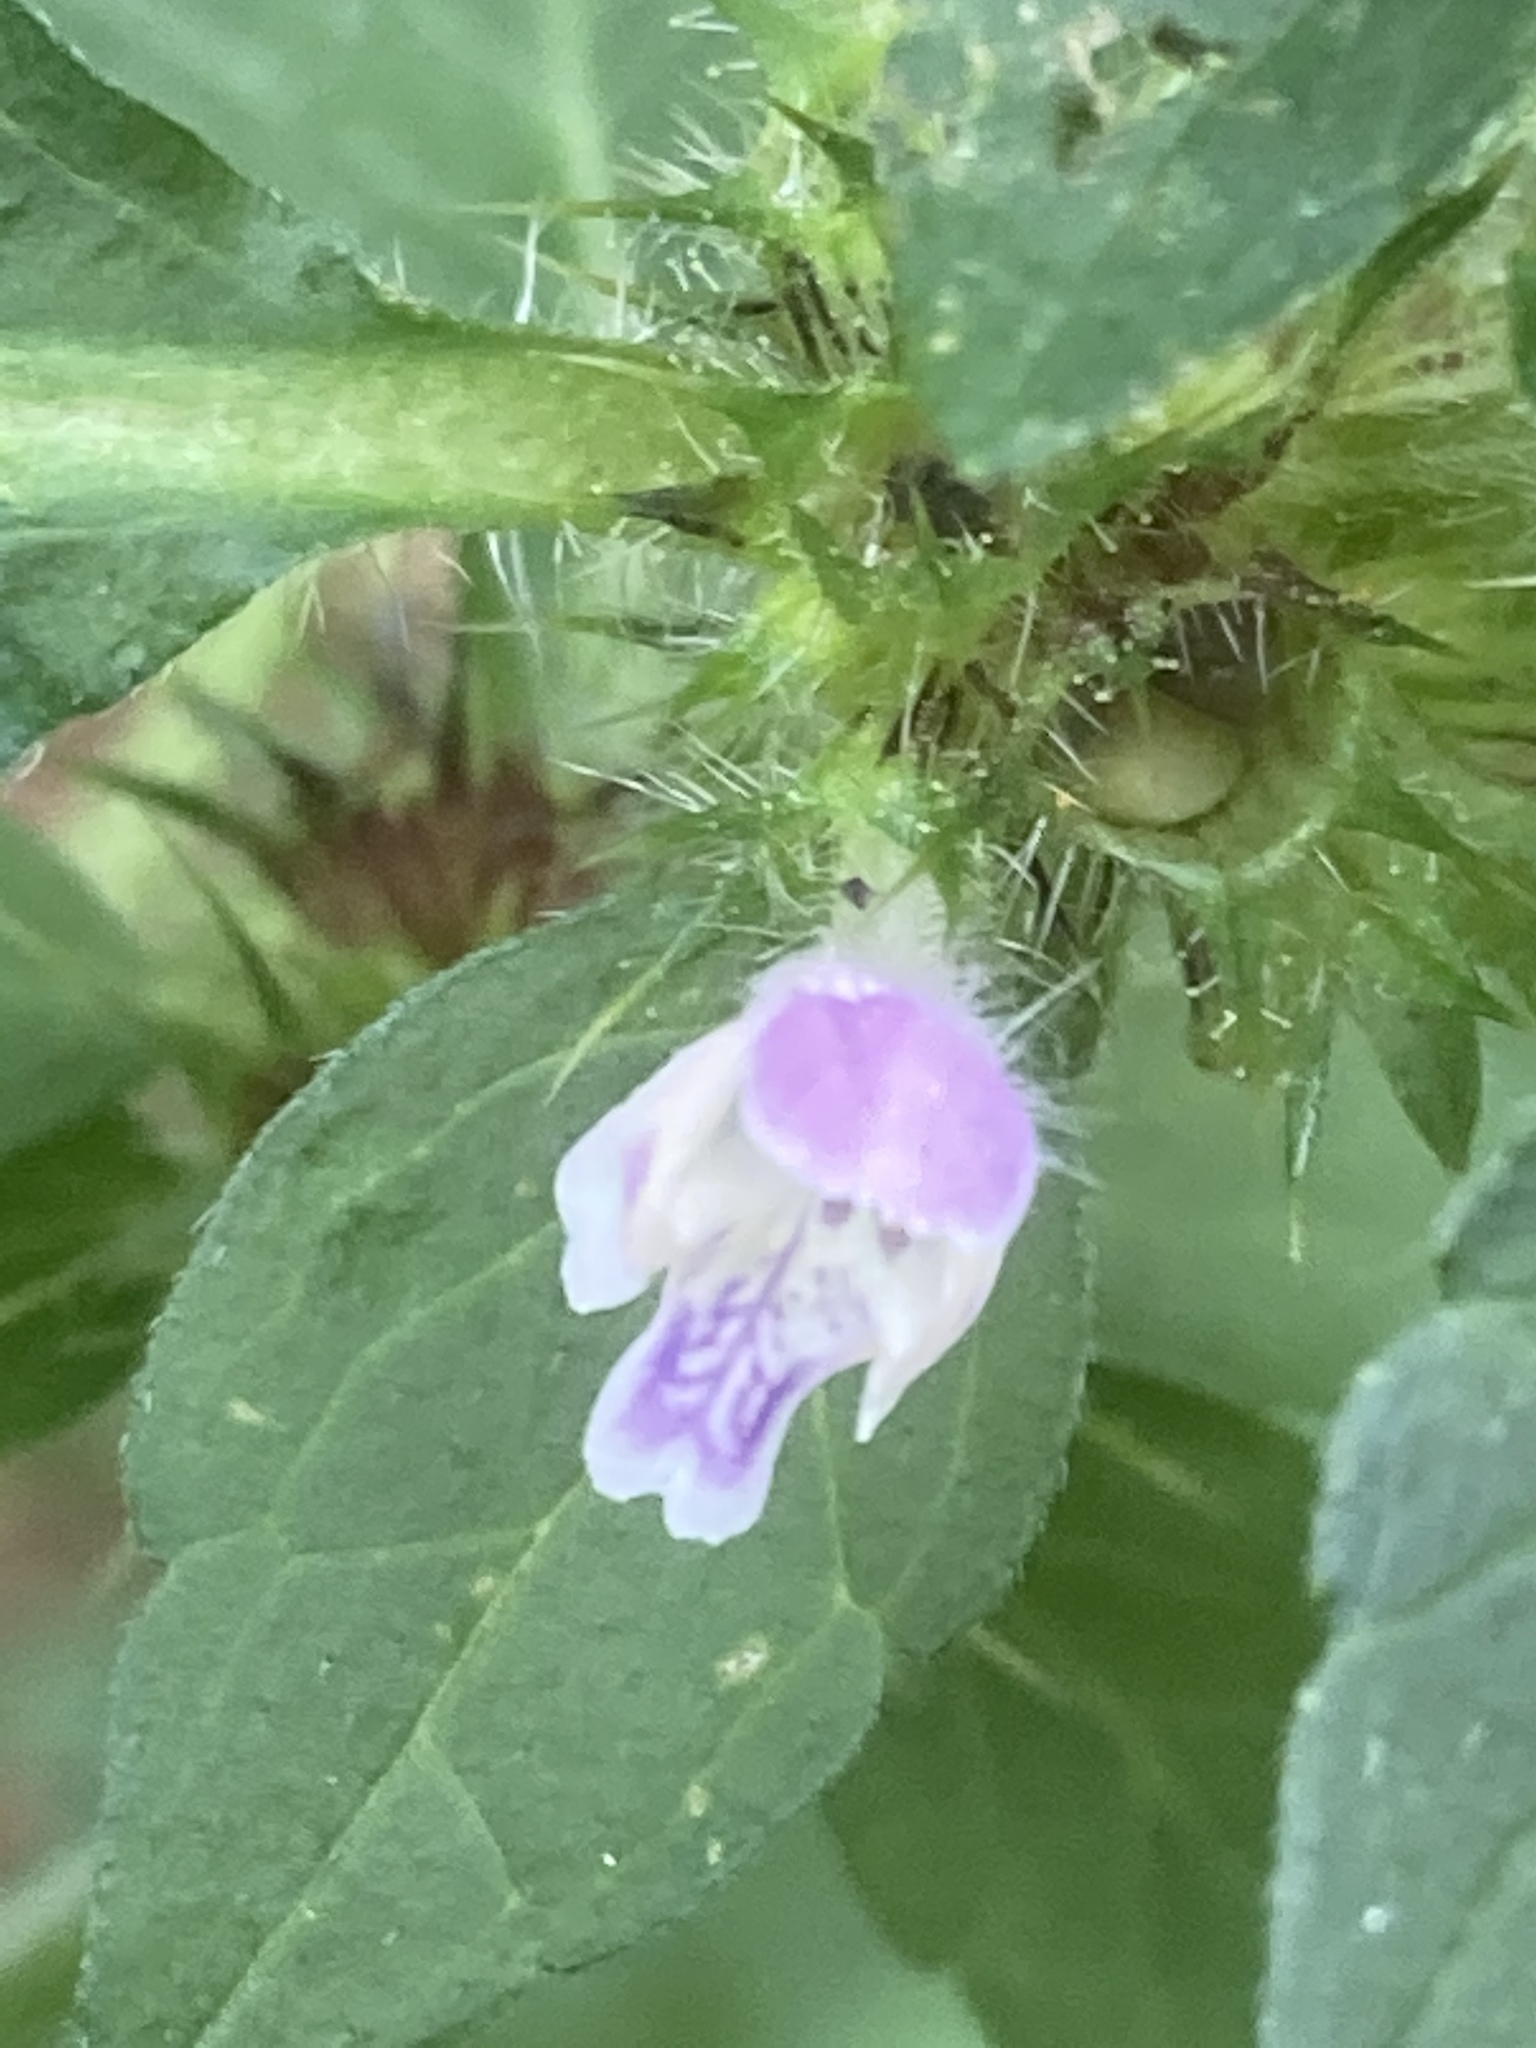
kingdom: Plantae
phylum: Tracheophyta
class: Magnoliopsida
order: Lamiales
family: Lamiaceae
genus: Galeopsis
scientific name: Galeopsis bifida
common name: Bifid hemp-nettle
